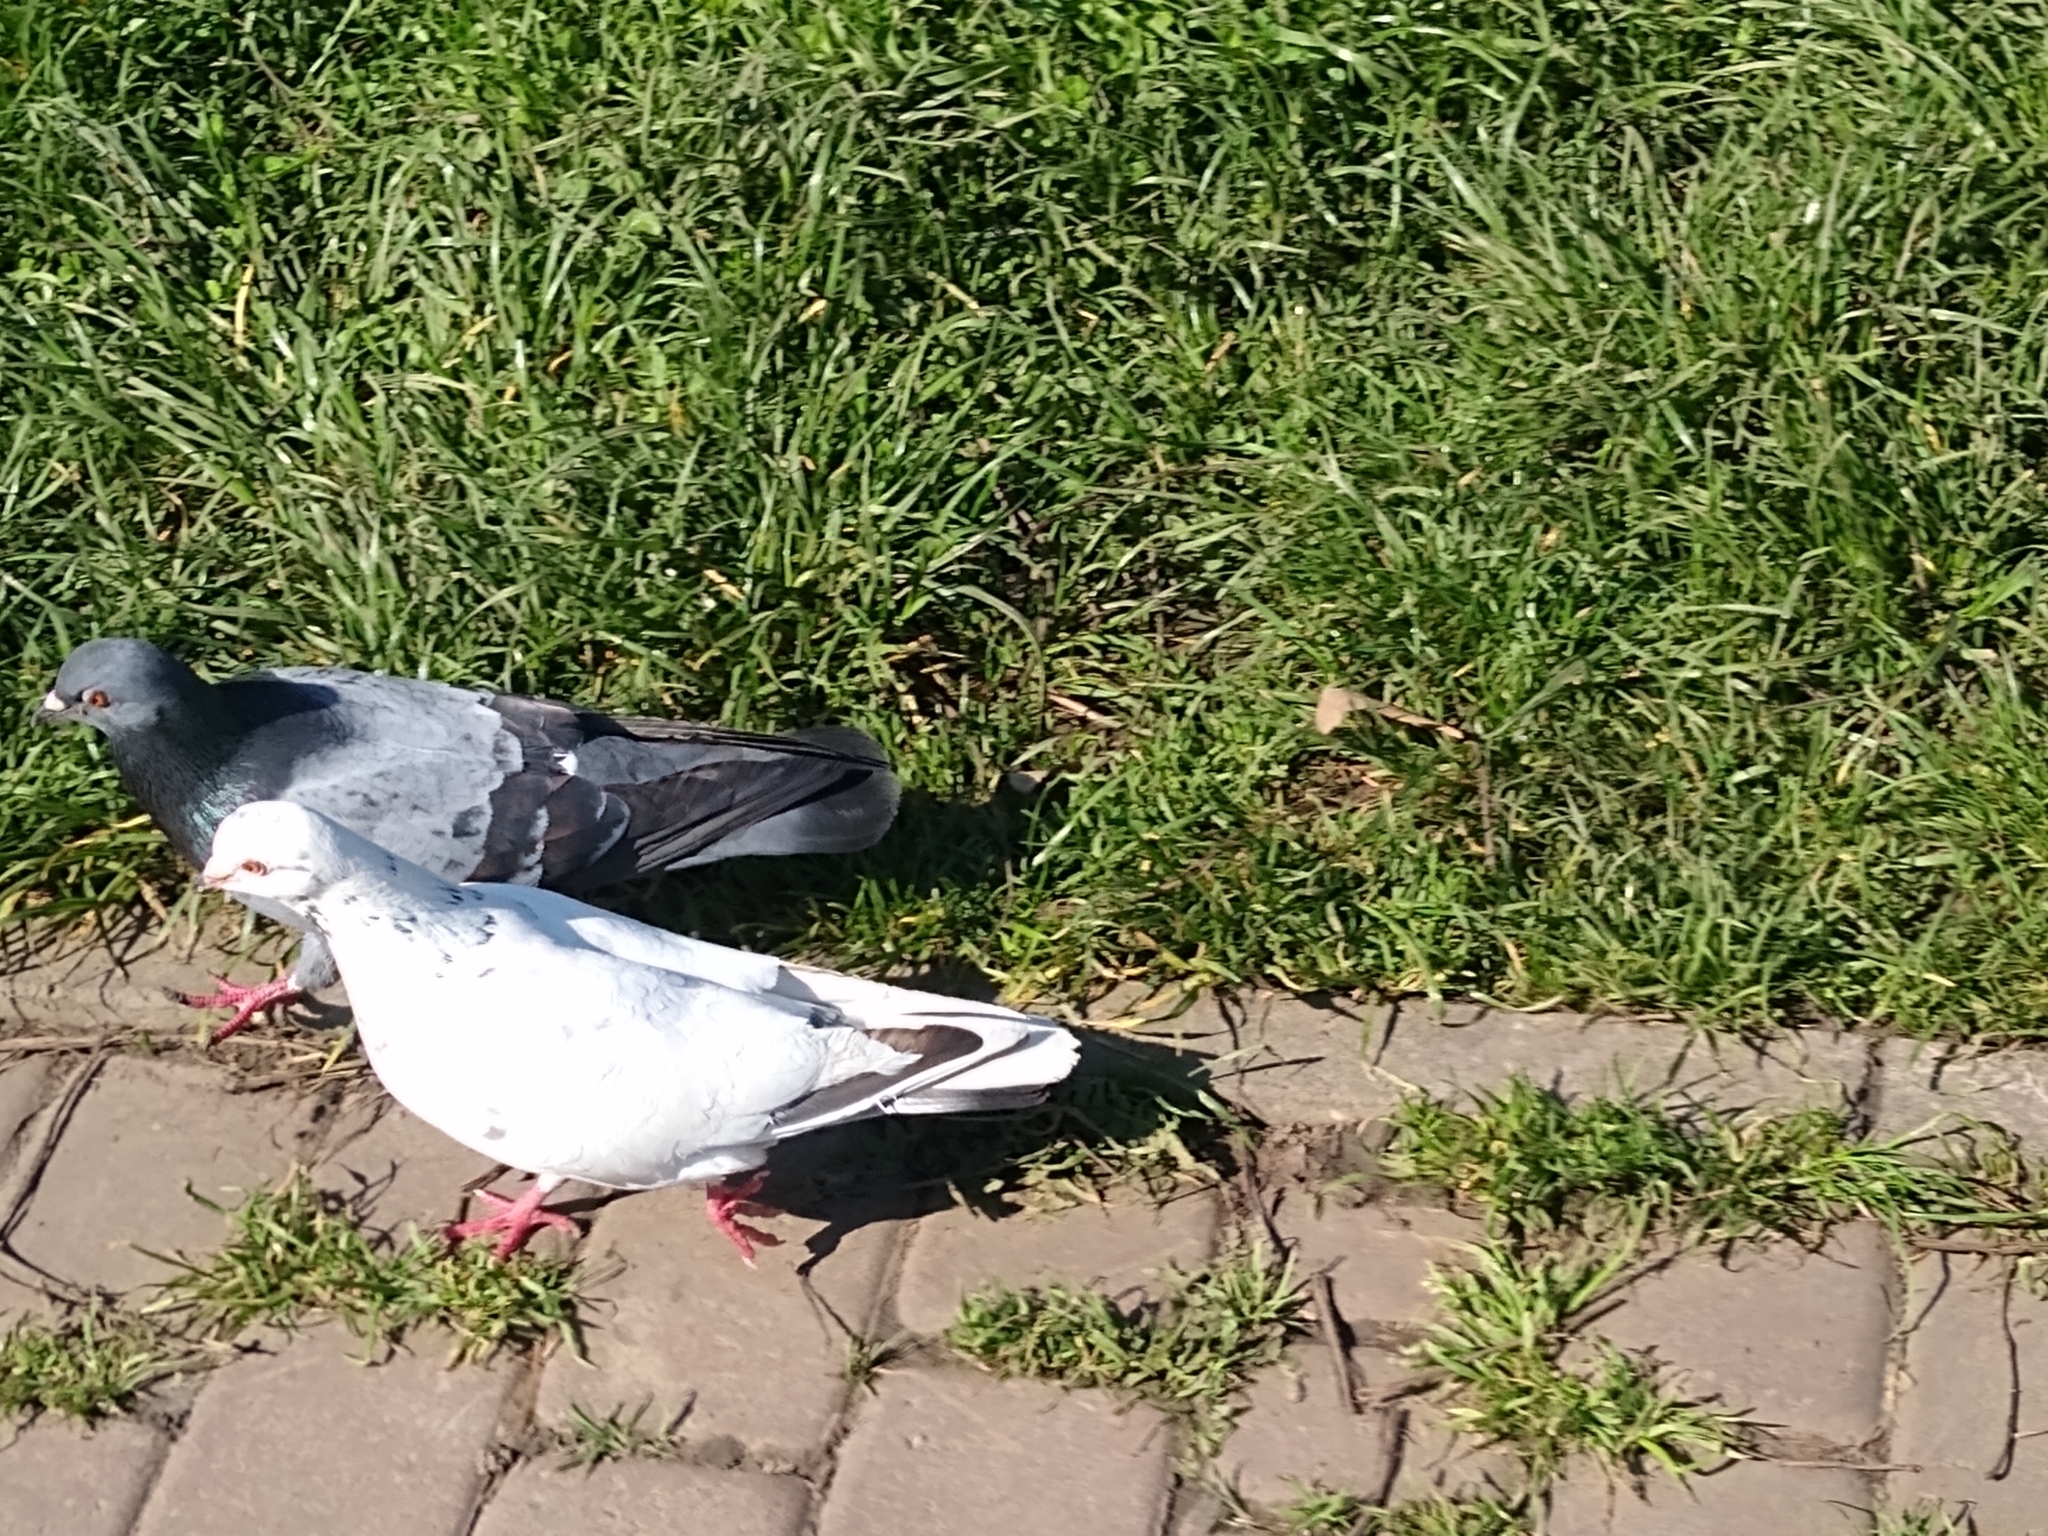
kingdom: Animalia
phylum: Chordata
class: Aves
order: Columbiformes
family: Columbidae
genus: Columba
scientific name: Columba livia
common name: Rock pigeon
